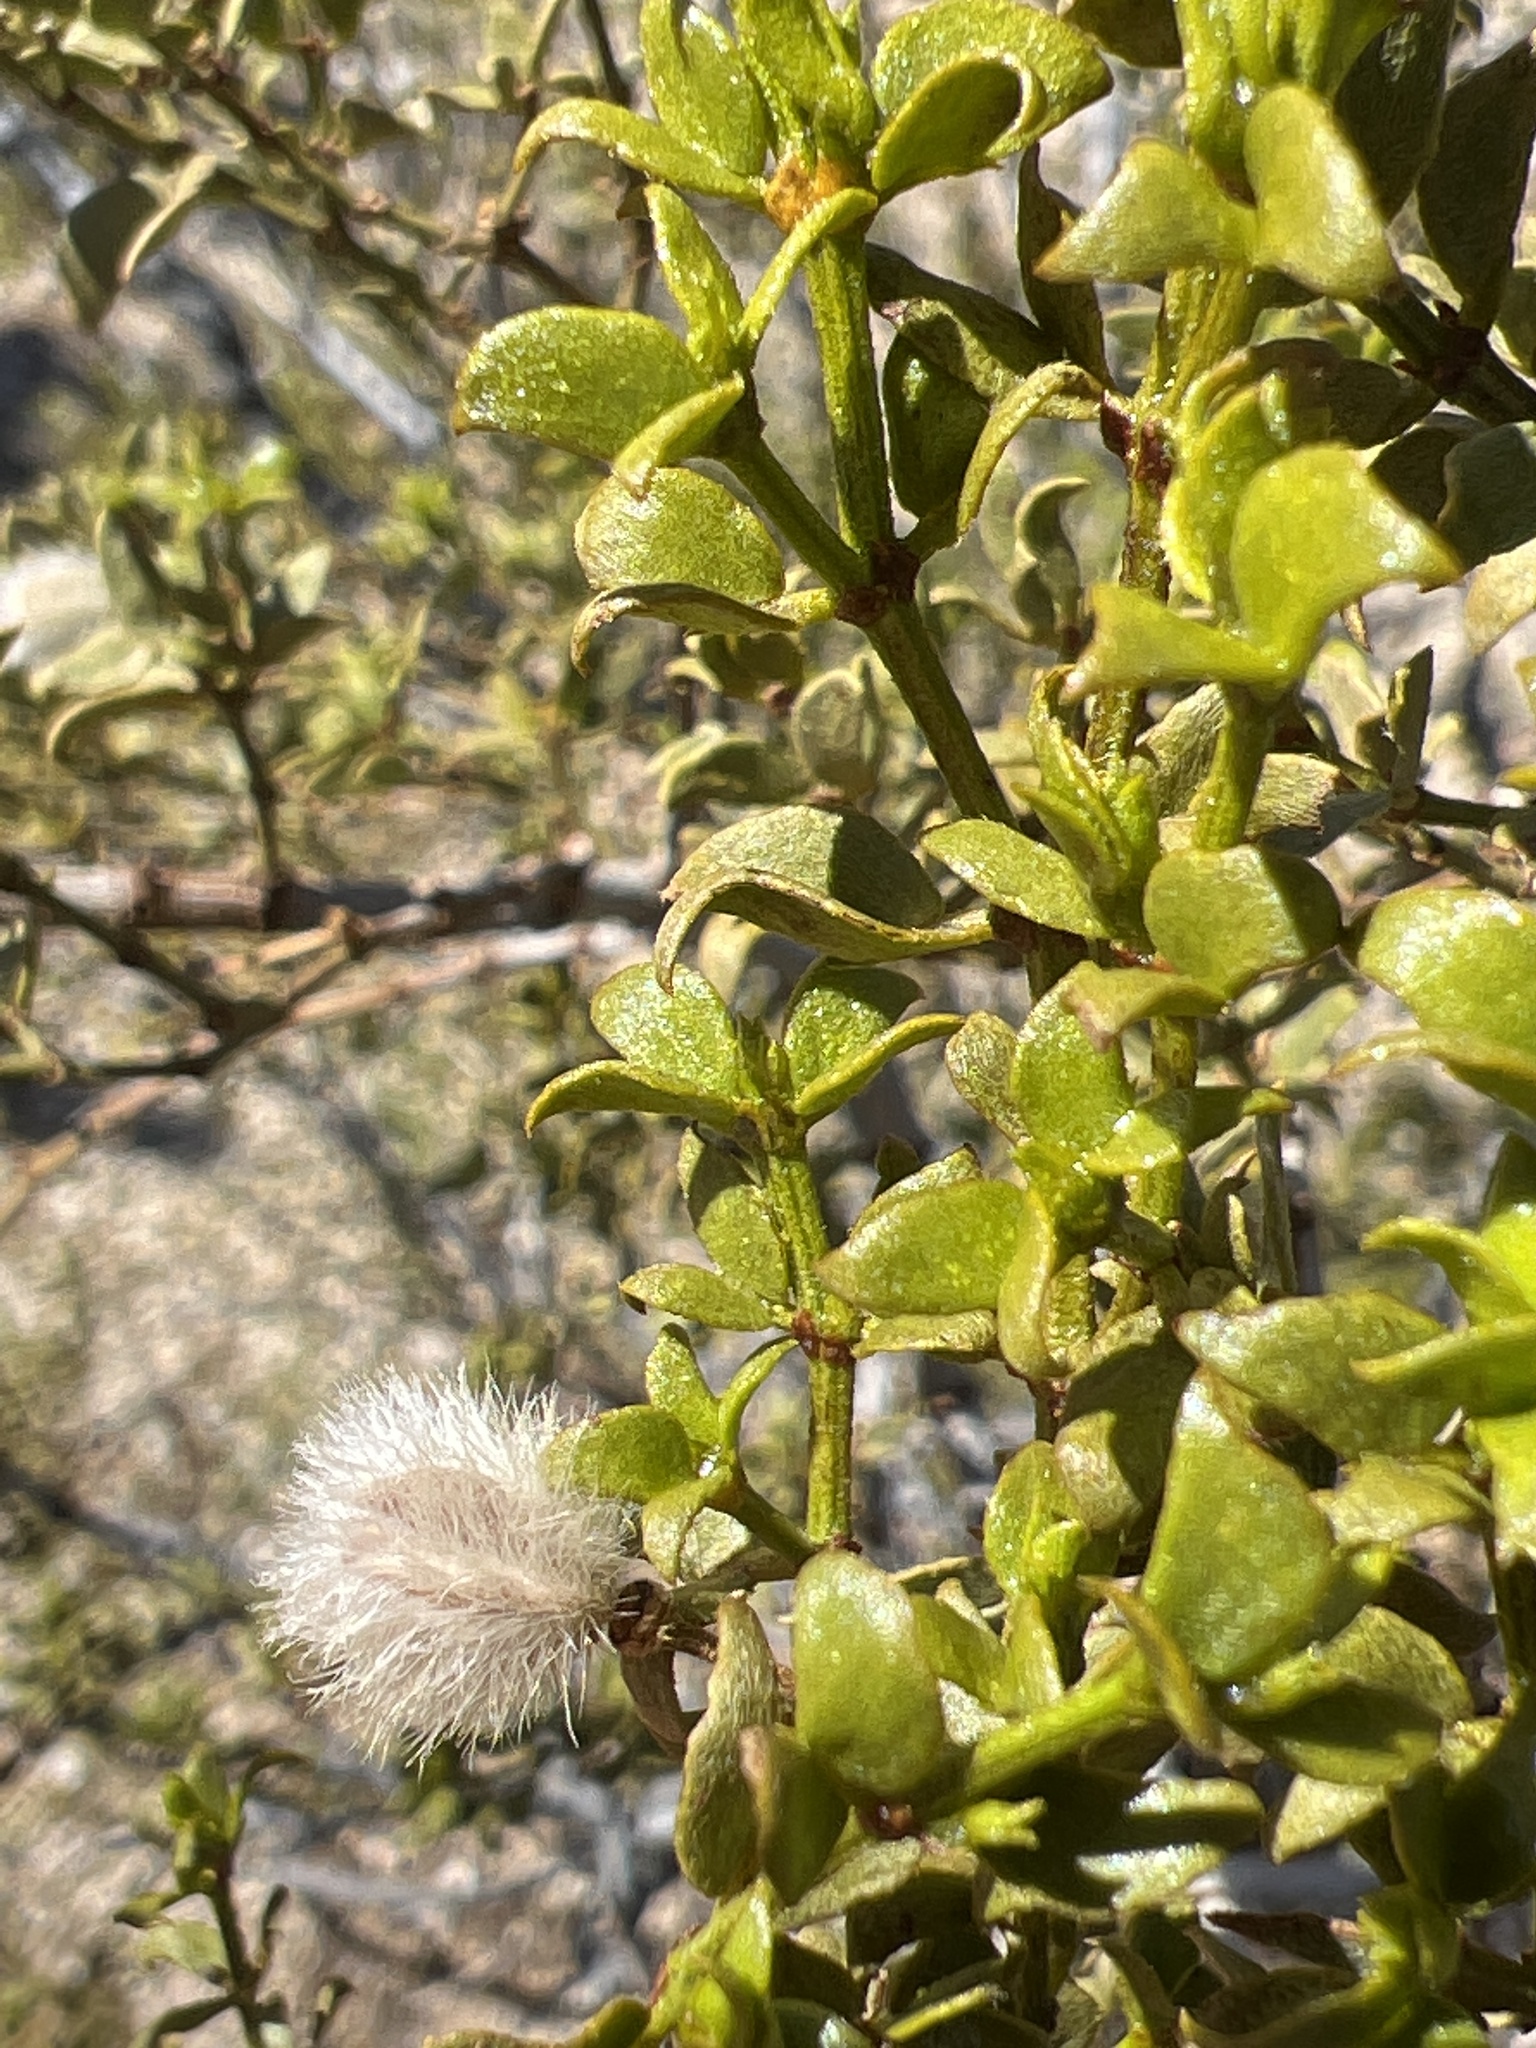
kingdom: Plantae
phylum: Tracheophyta
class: Magnoliopsida
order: Zygophyllales
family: Zygophyllaceae
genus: Larrea
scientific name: Larrea tridentata
